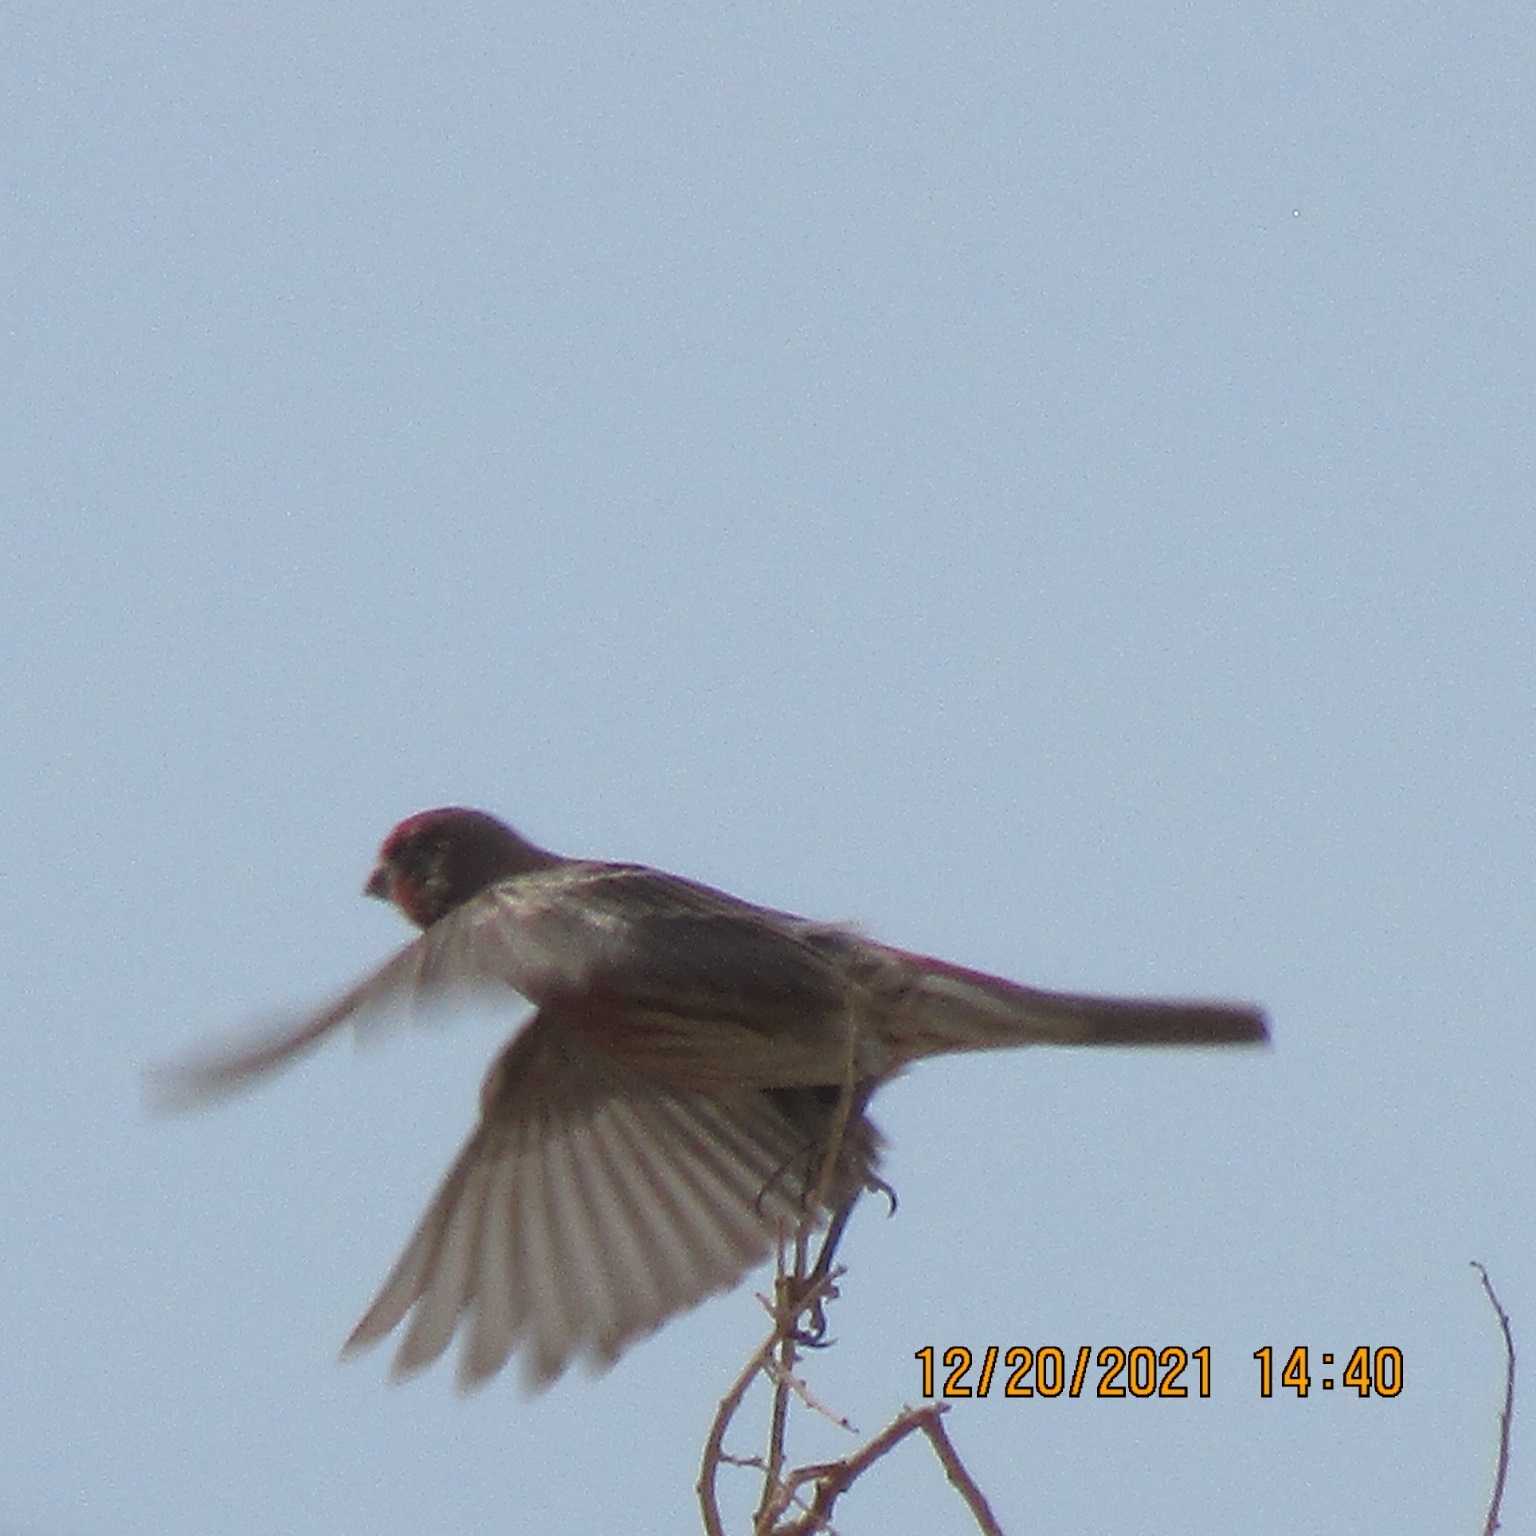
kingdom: Animalia
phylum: Chordata
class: Aves
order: Passeriformes
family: Fringillidae
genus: Haemorhous
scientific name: Haemorhous mexicanus
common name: House finch
